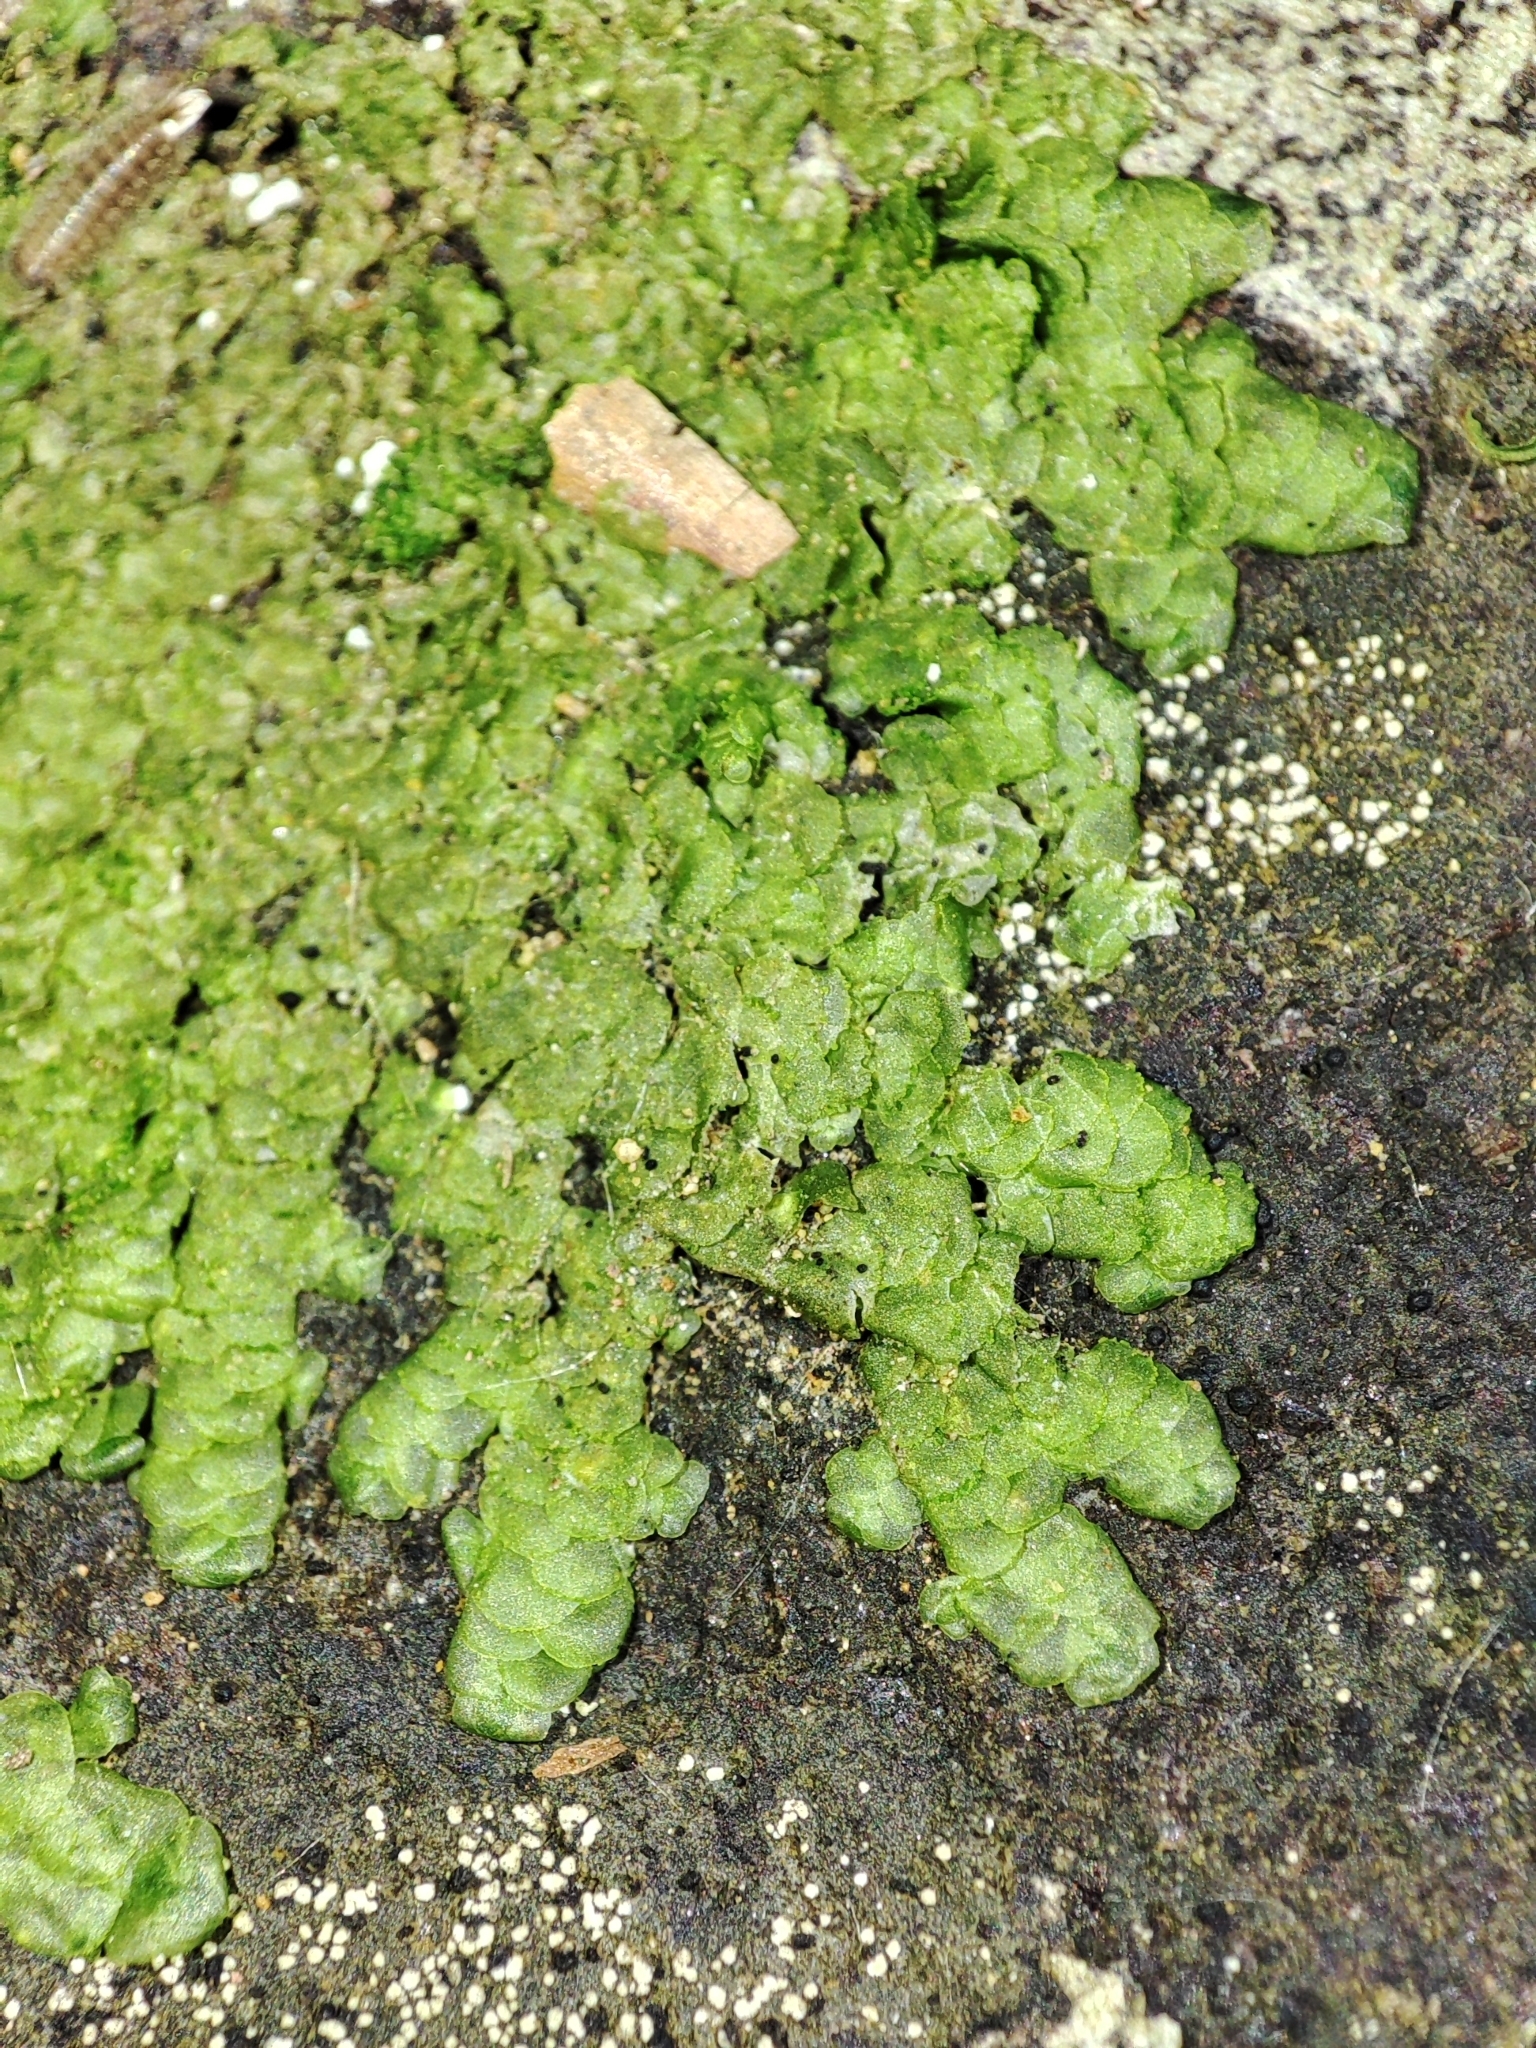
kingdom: Plantae
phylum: Marchantiophyta
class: Jungermanniopsida
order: Porellales
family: Radulaceae
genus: Radula
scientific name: Radula complanata
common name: Flat-leaved scalewort
